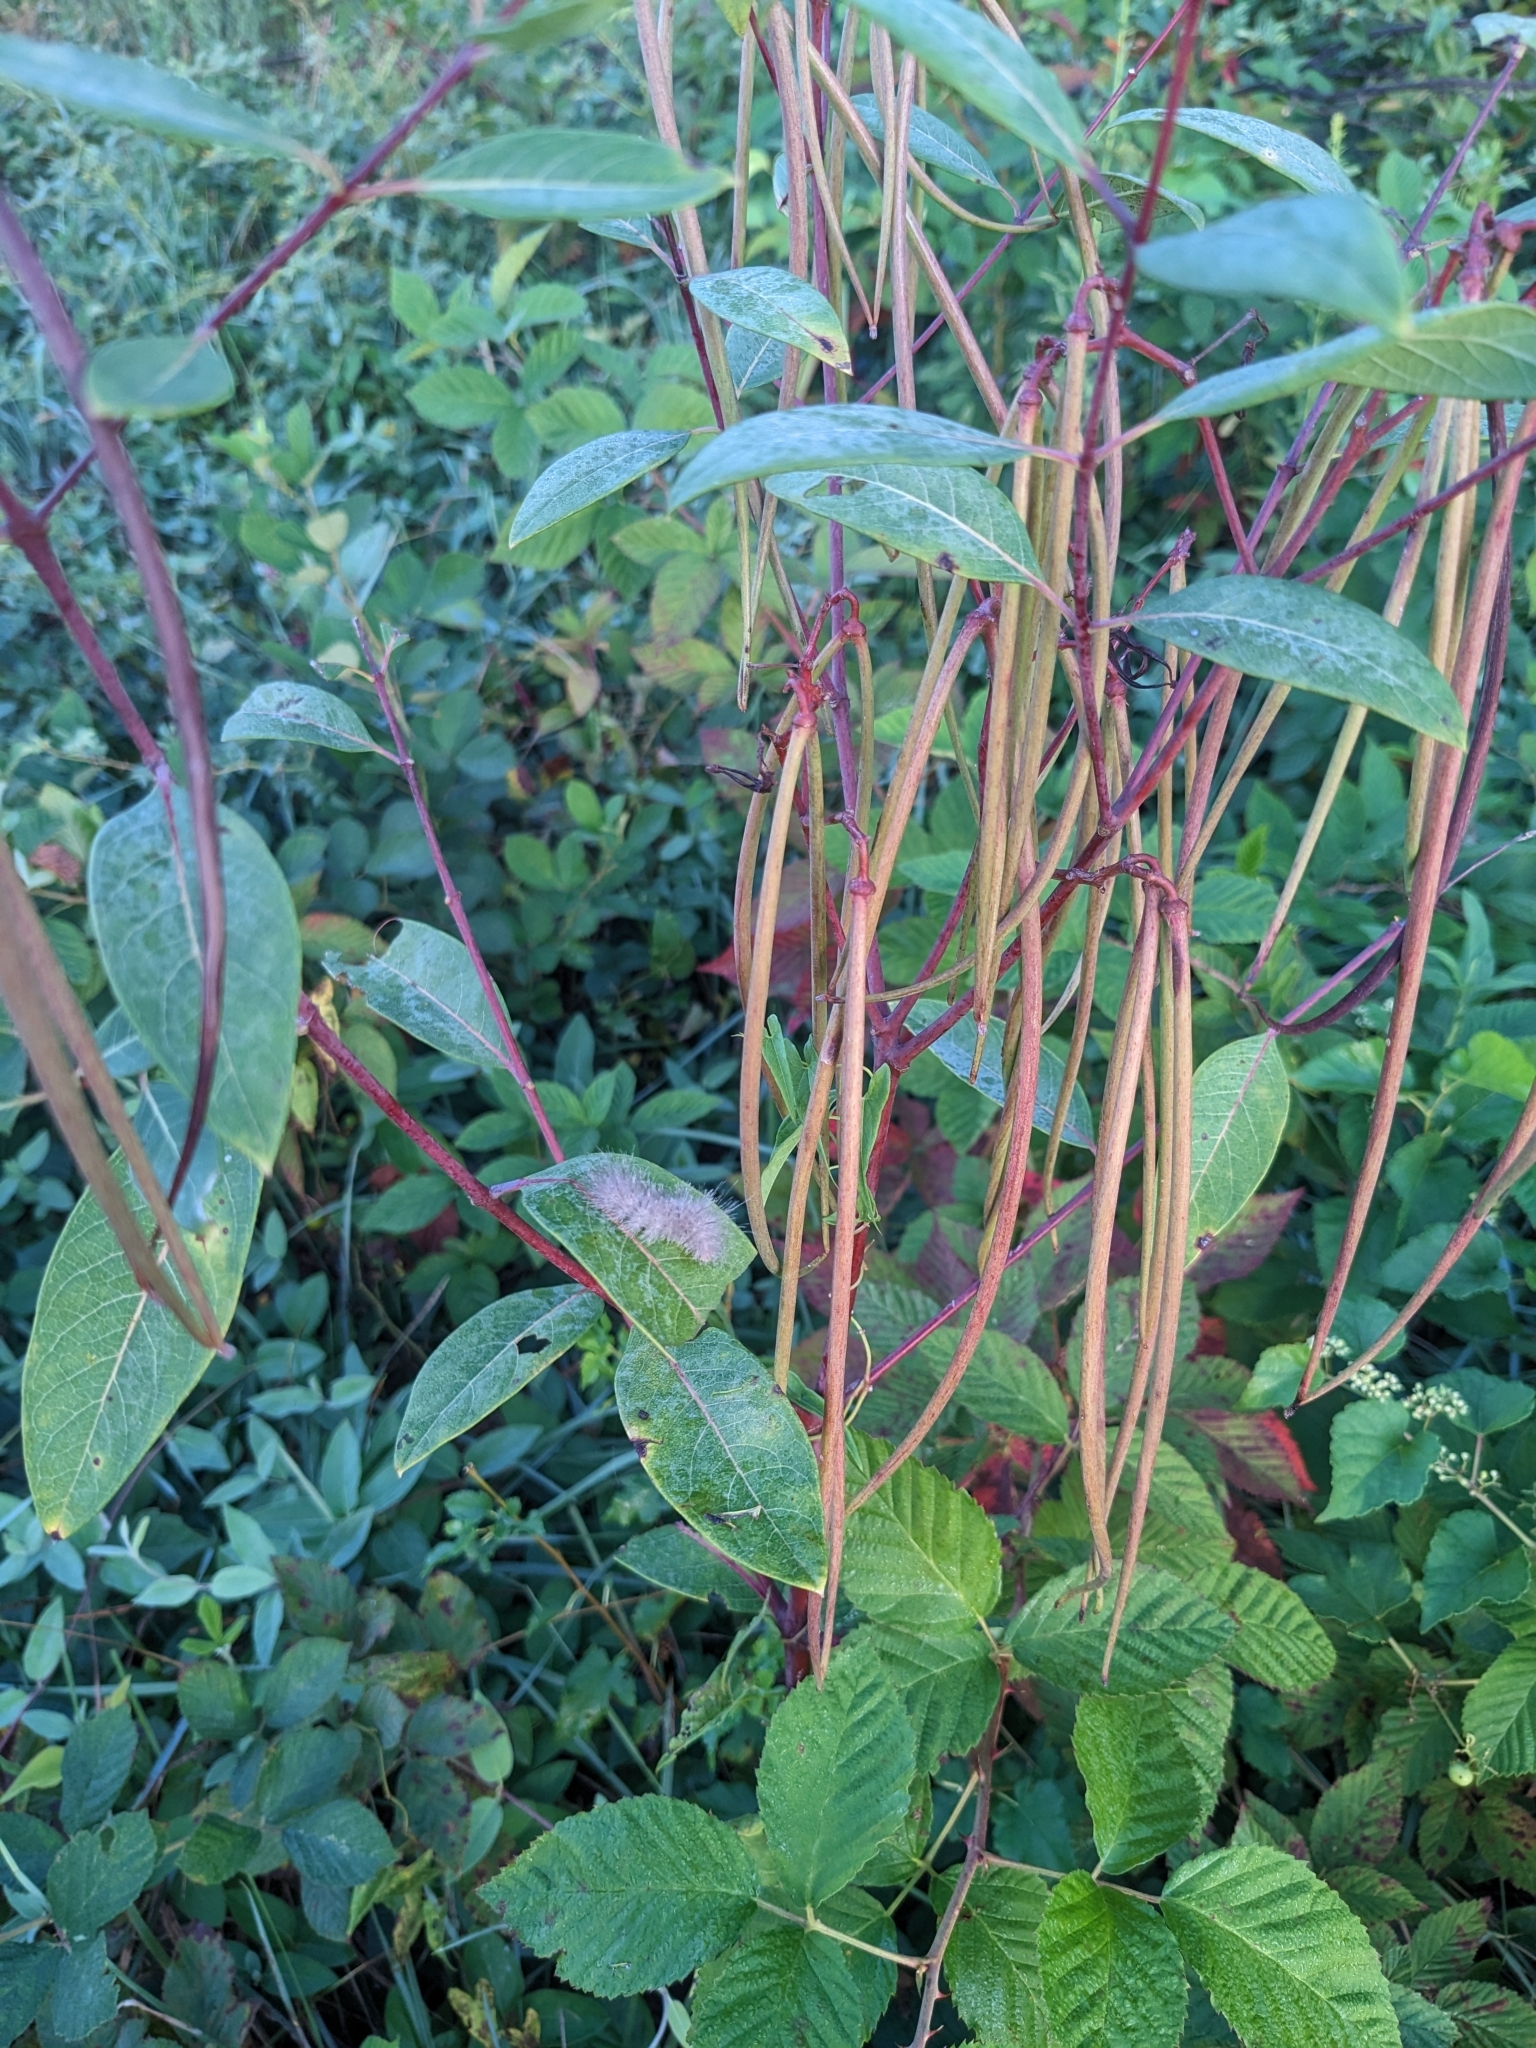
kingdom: Plantae
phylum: Tracheophyta
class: Magnoliopsida
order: Gentianales
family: Apocynaceae
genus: Apocynum
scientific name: Apocynum cannabinum
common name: Hemp dogbane
